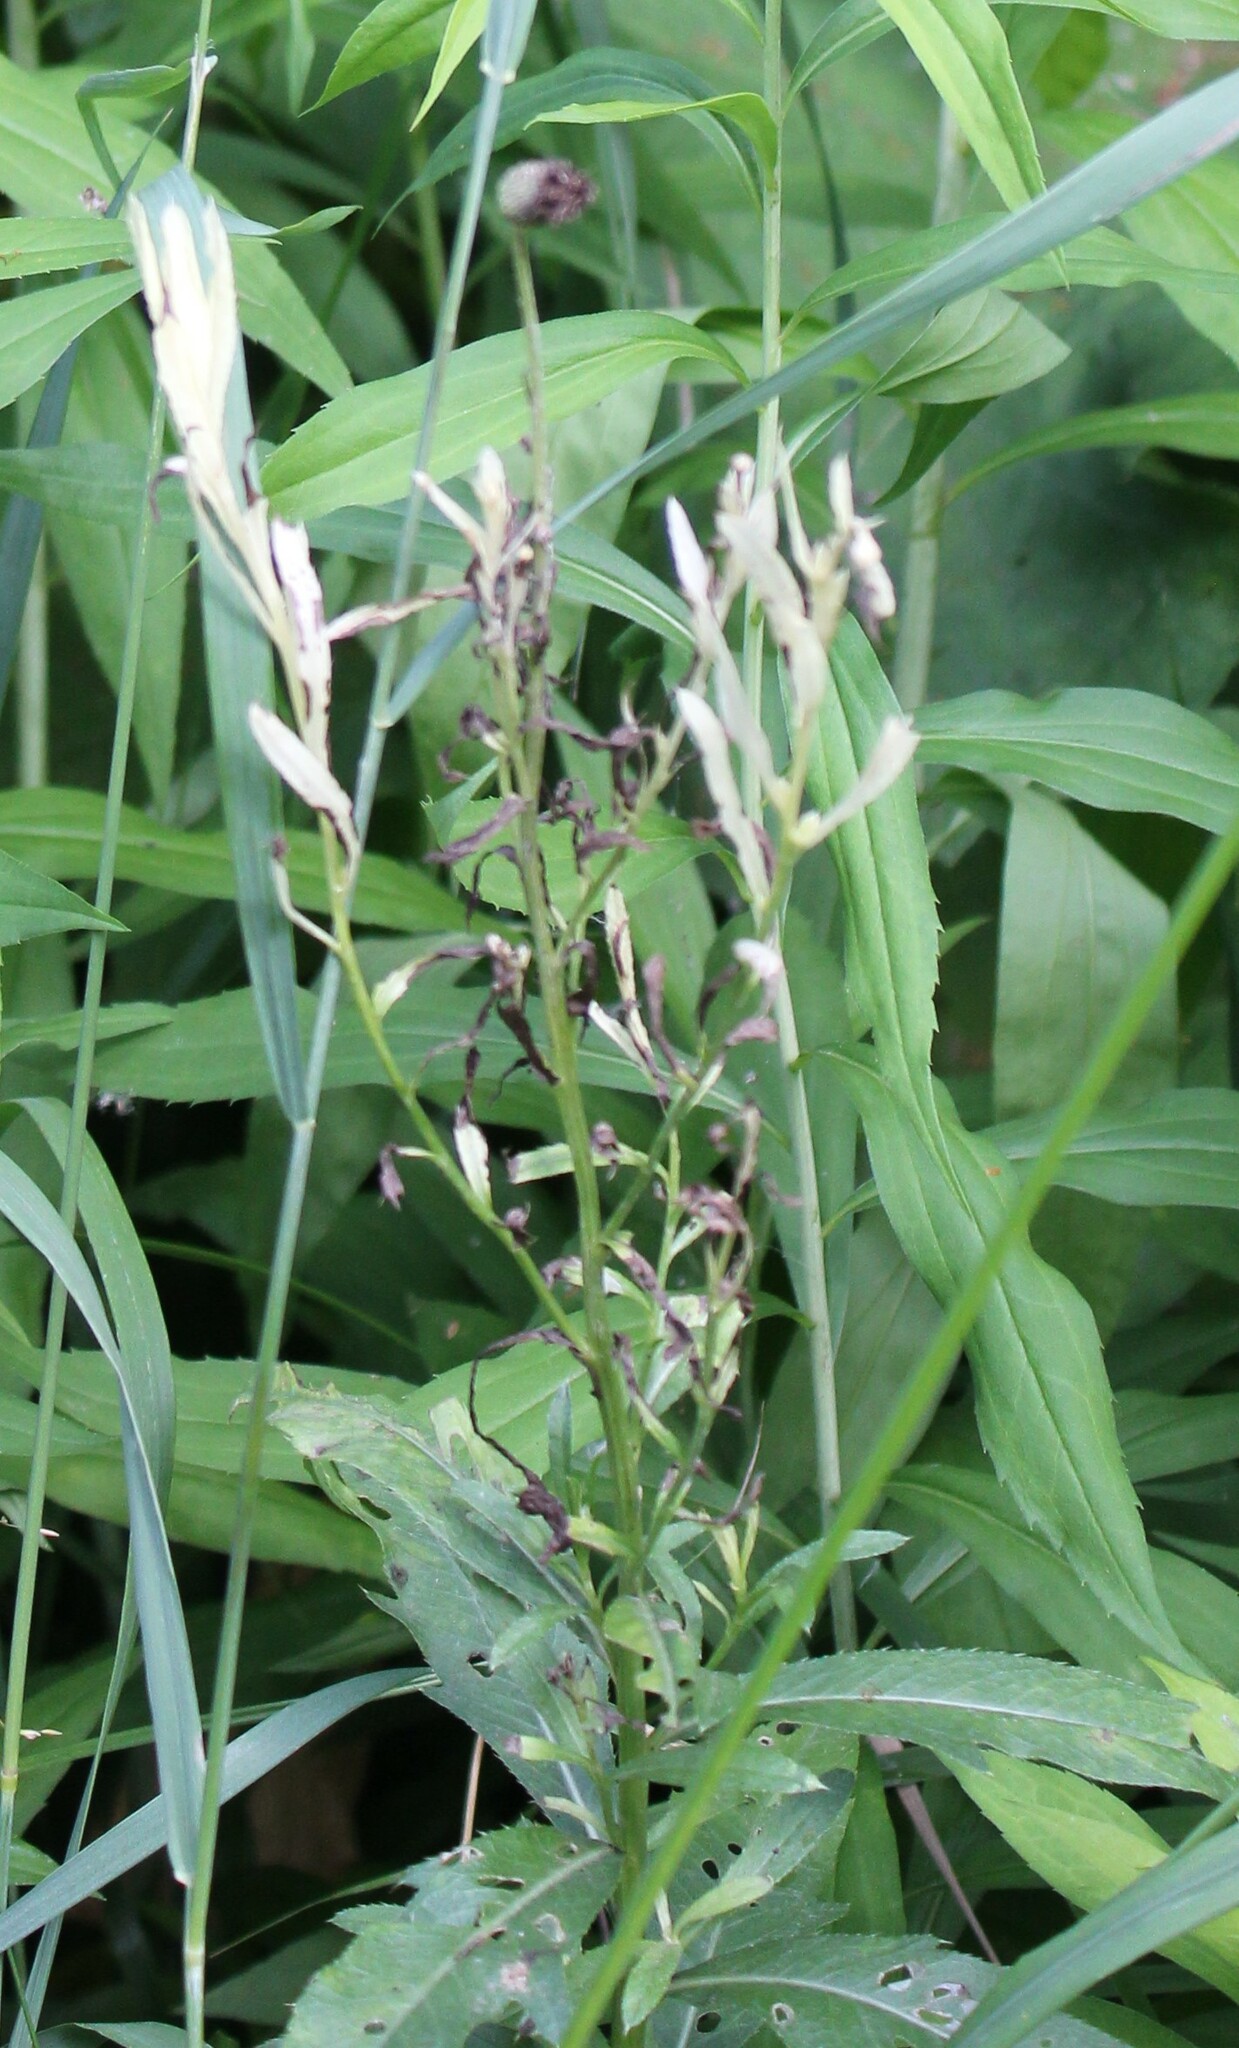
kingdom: Bacteria
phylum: Proteobacteria
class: Gammaproteobacteria
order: Pseudomonadales
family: Pseudomonadaceae
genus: Pseudomonas
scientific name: Pseudomonas syringae
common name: Bacterial speck
